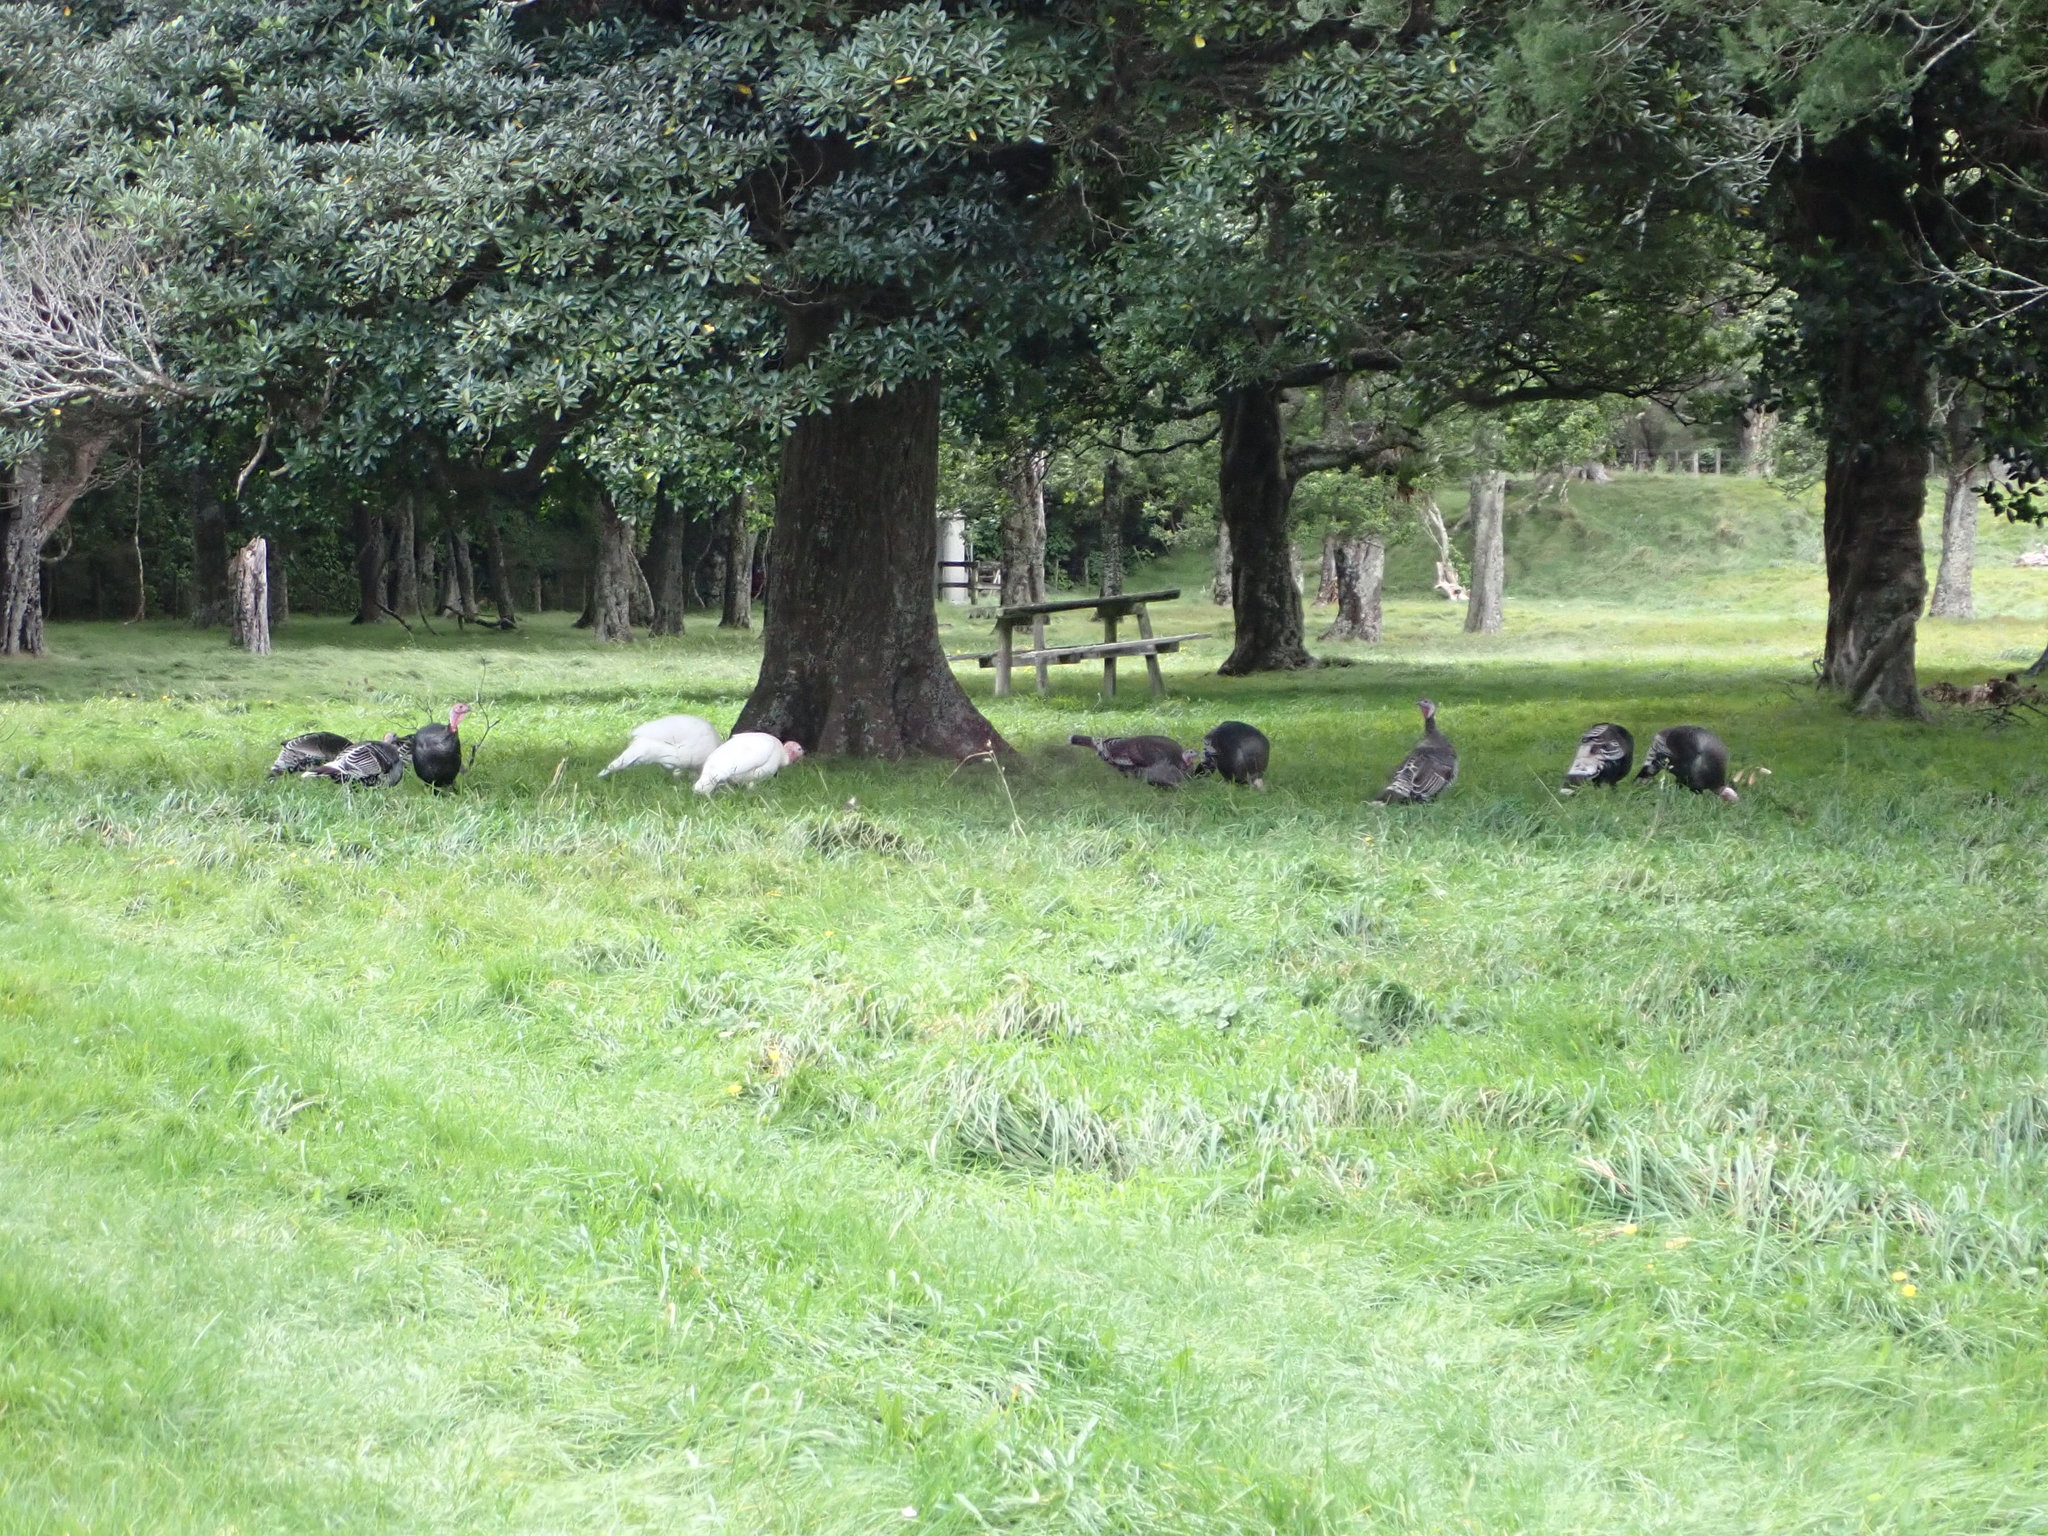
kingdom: Animalia
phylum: Chordata
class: Aves
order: Galliformes
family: Phasianidae
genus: Meleagris
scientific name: Meleagris gallopavo
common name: Wild turkey
